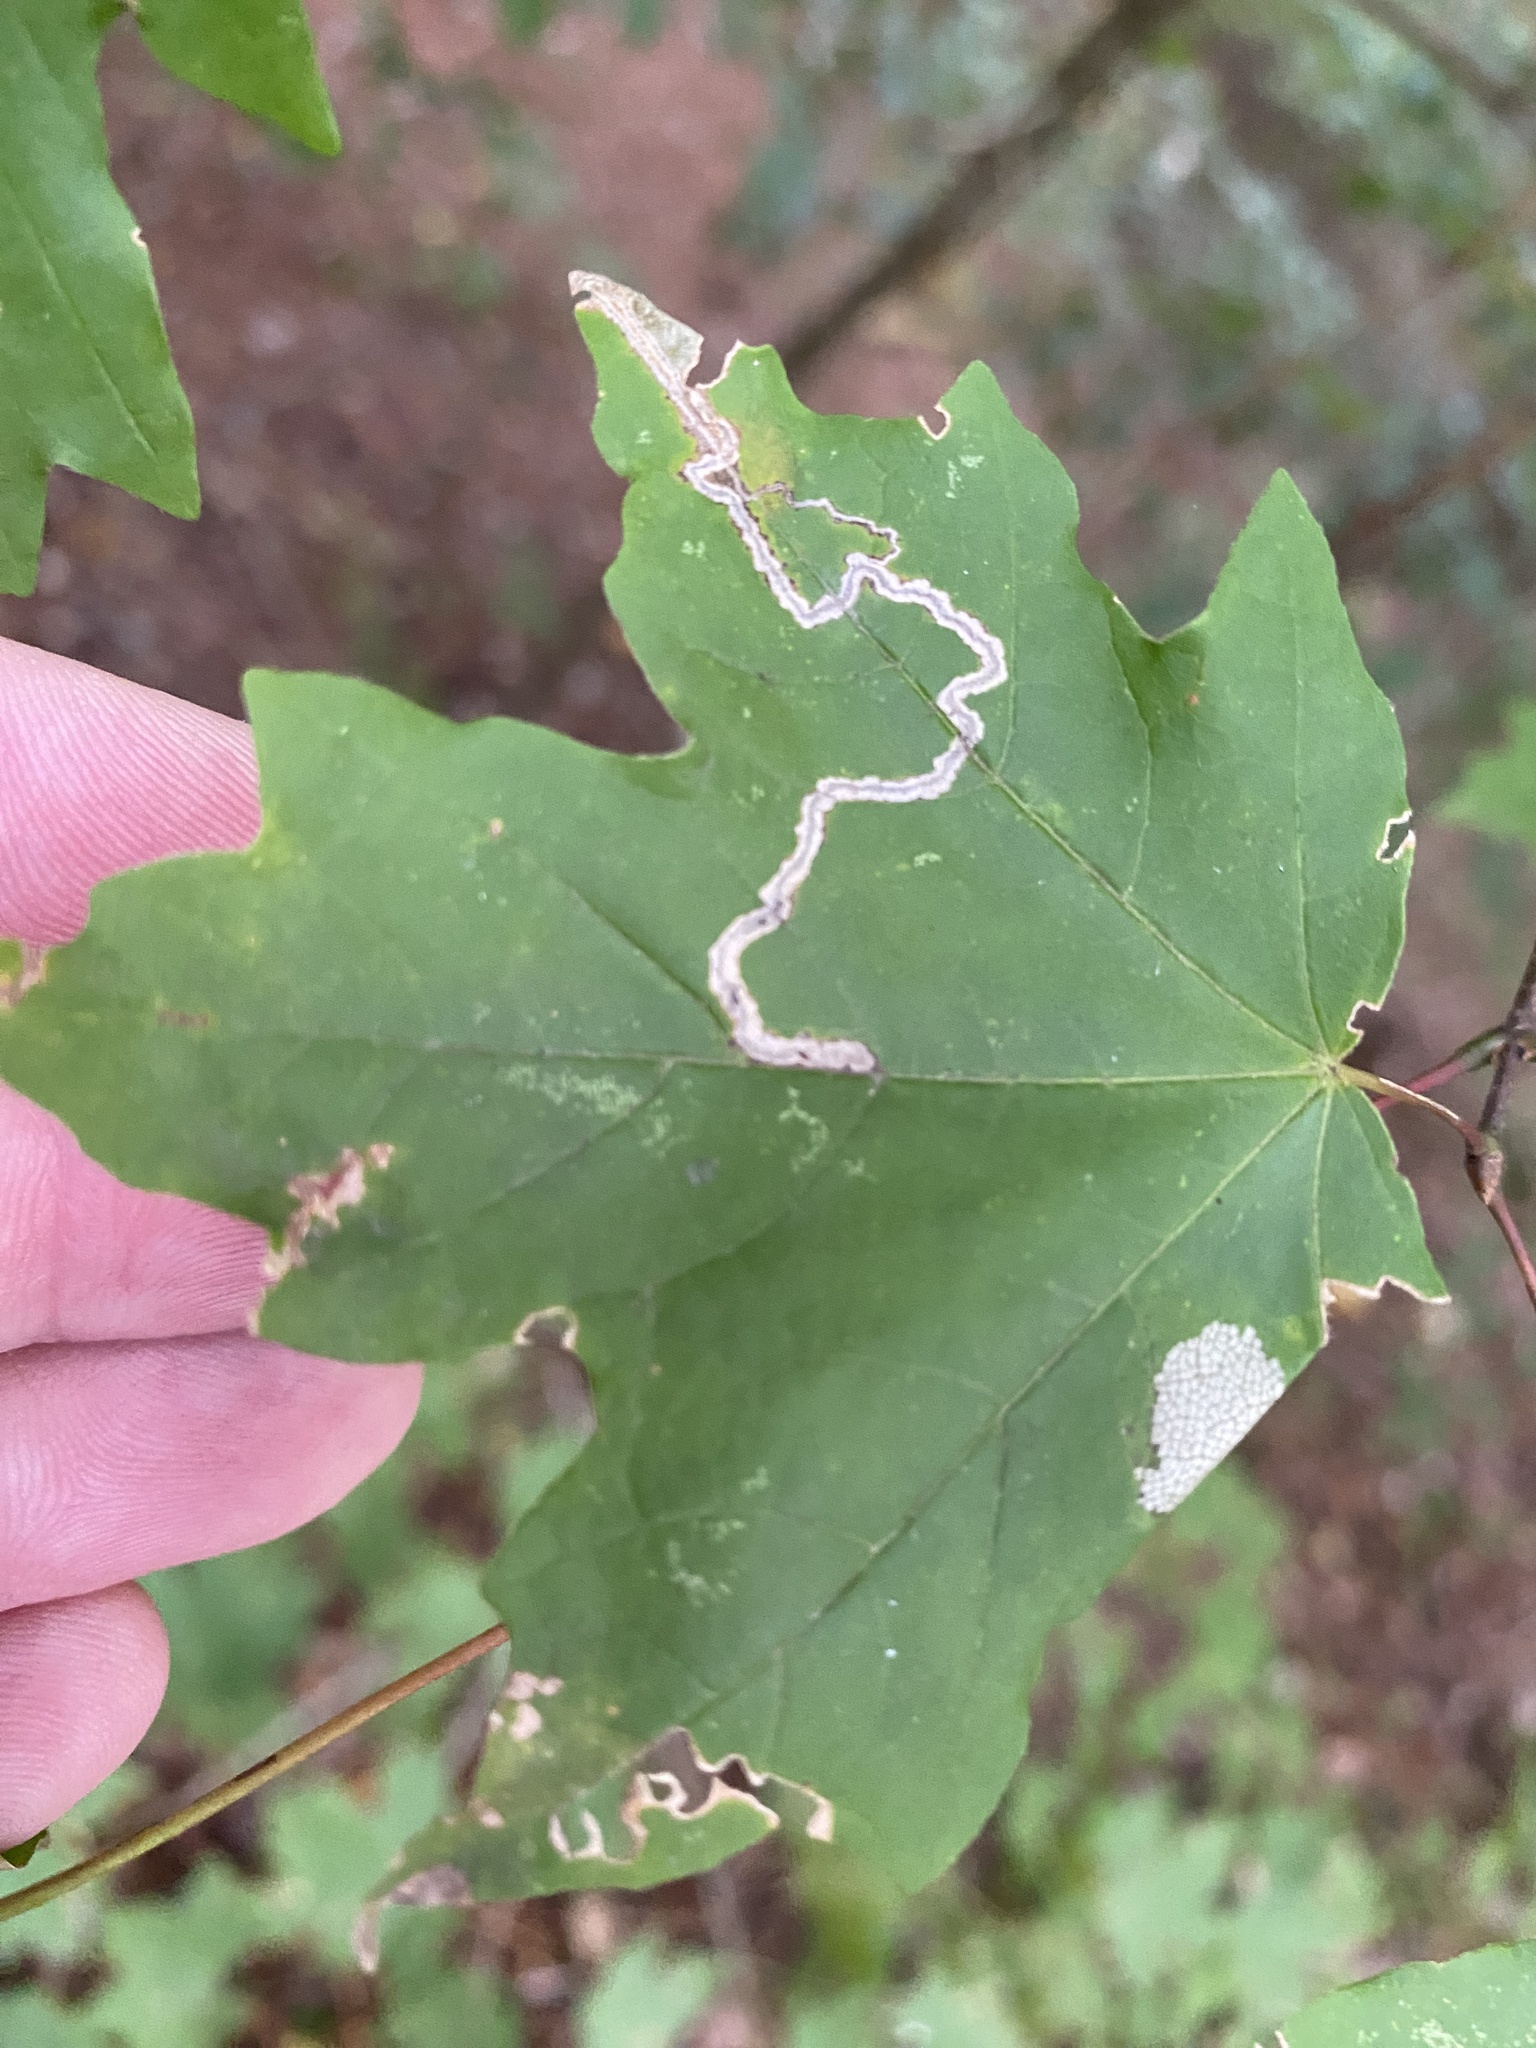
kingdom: Animalia
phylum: Arthropoda
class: Insecta
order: Lepidoptera
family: Nepticulidae
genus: Glaucolepis
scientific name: Glaucolepis saccharella
